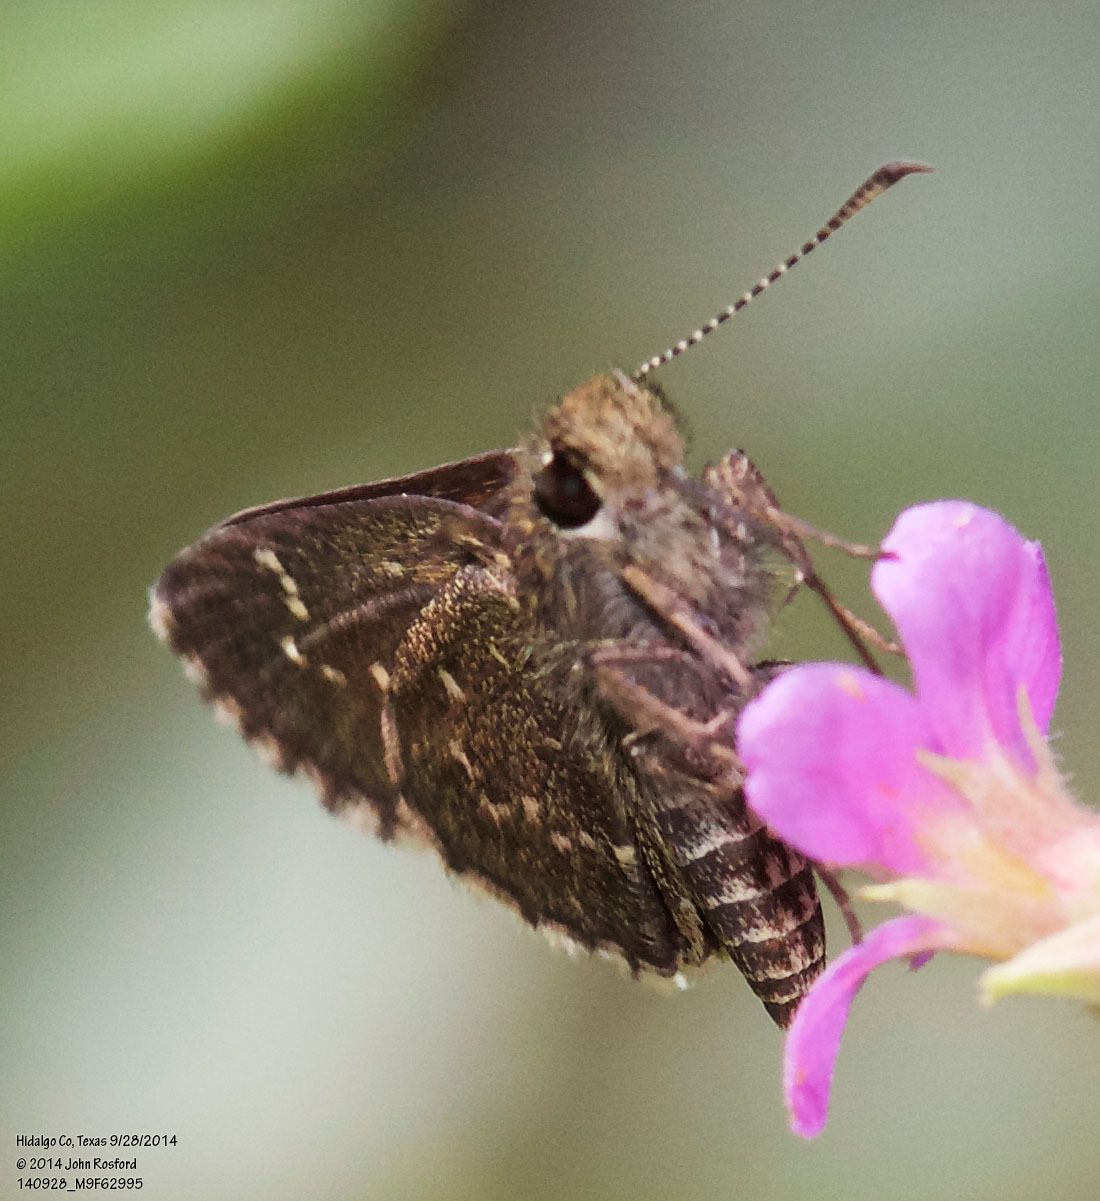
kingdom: Animalia
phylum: Arthropoda
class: Insecta
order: Lepidoptera
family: Hesperiidae
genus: Mastor
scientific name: Mastor celia
